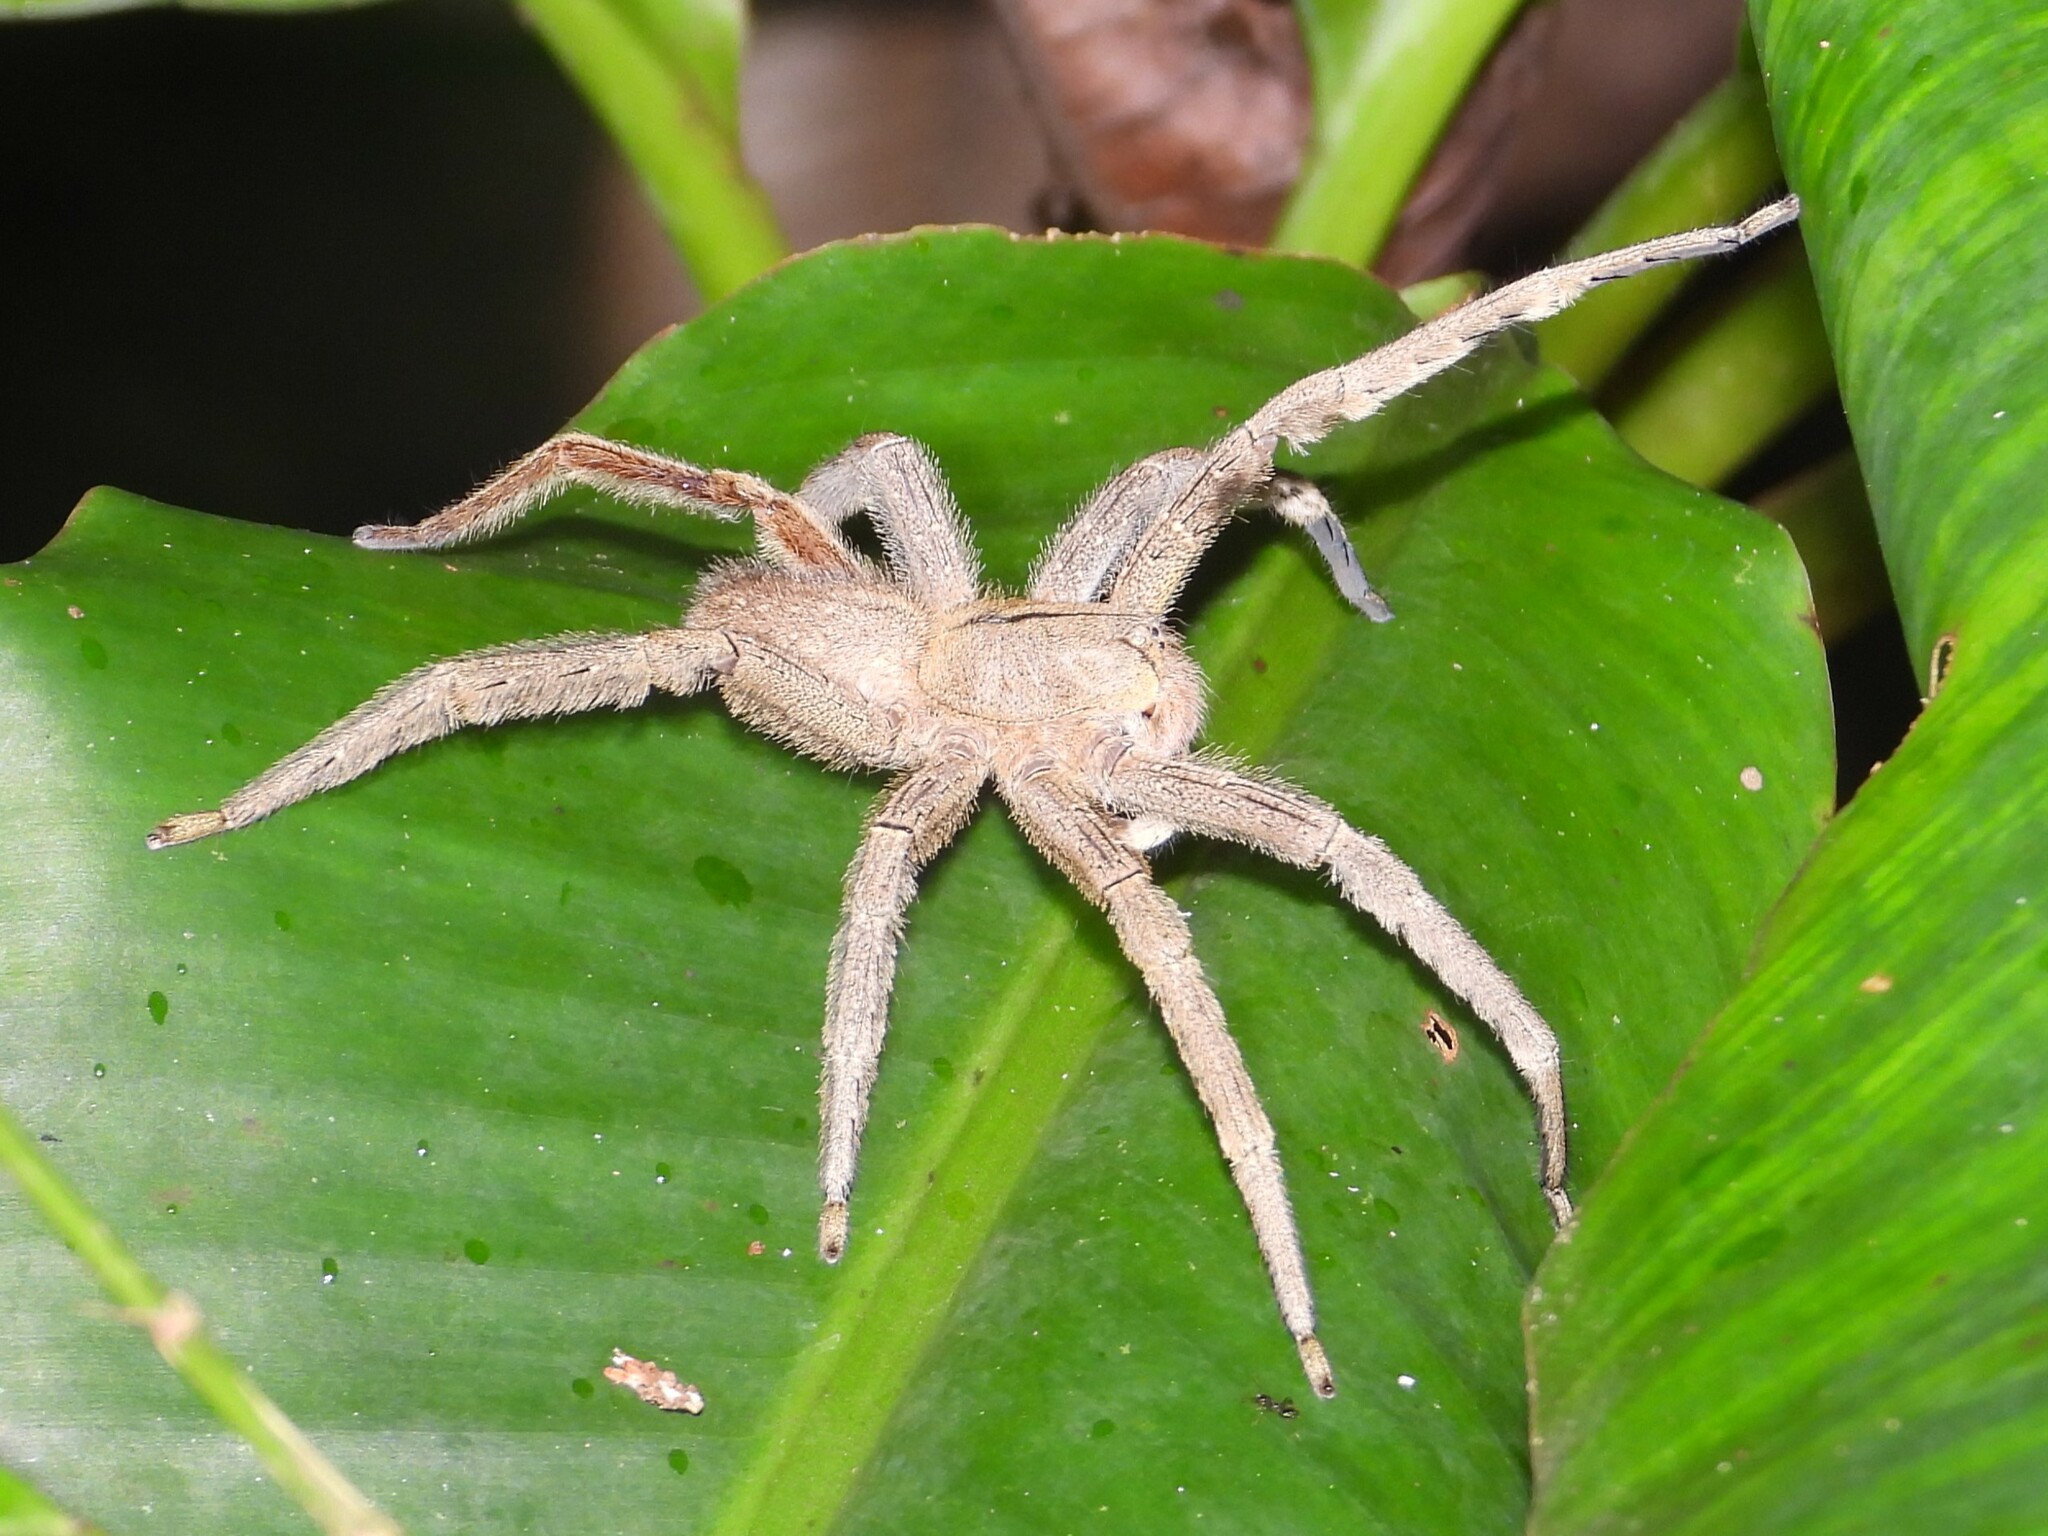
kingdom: Animalia
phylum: Arthropoda
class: Arachnida
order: Araneae
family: Ctenidae
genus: Phoneutria
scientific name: Phoneutria depilata
